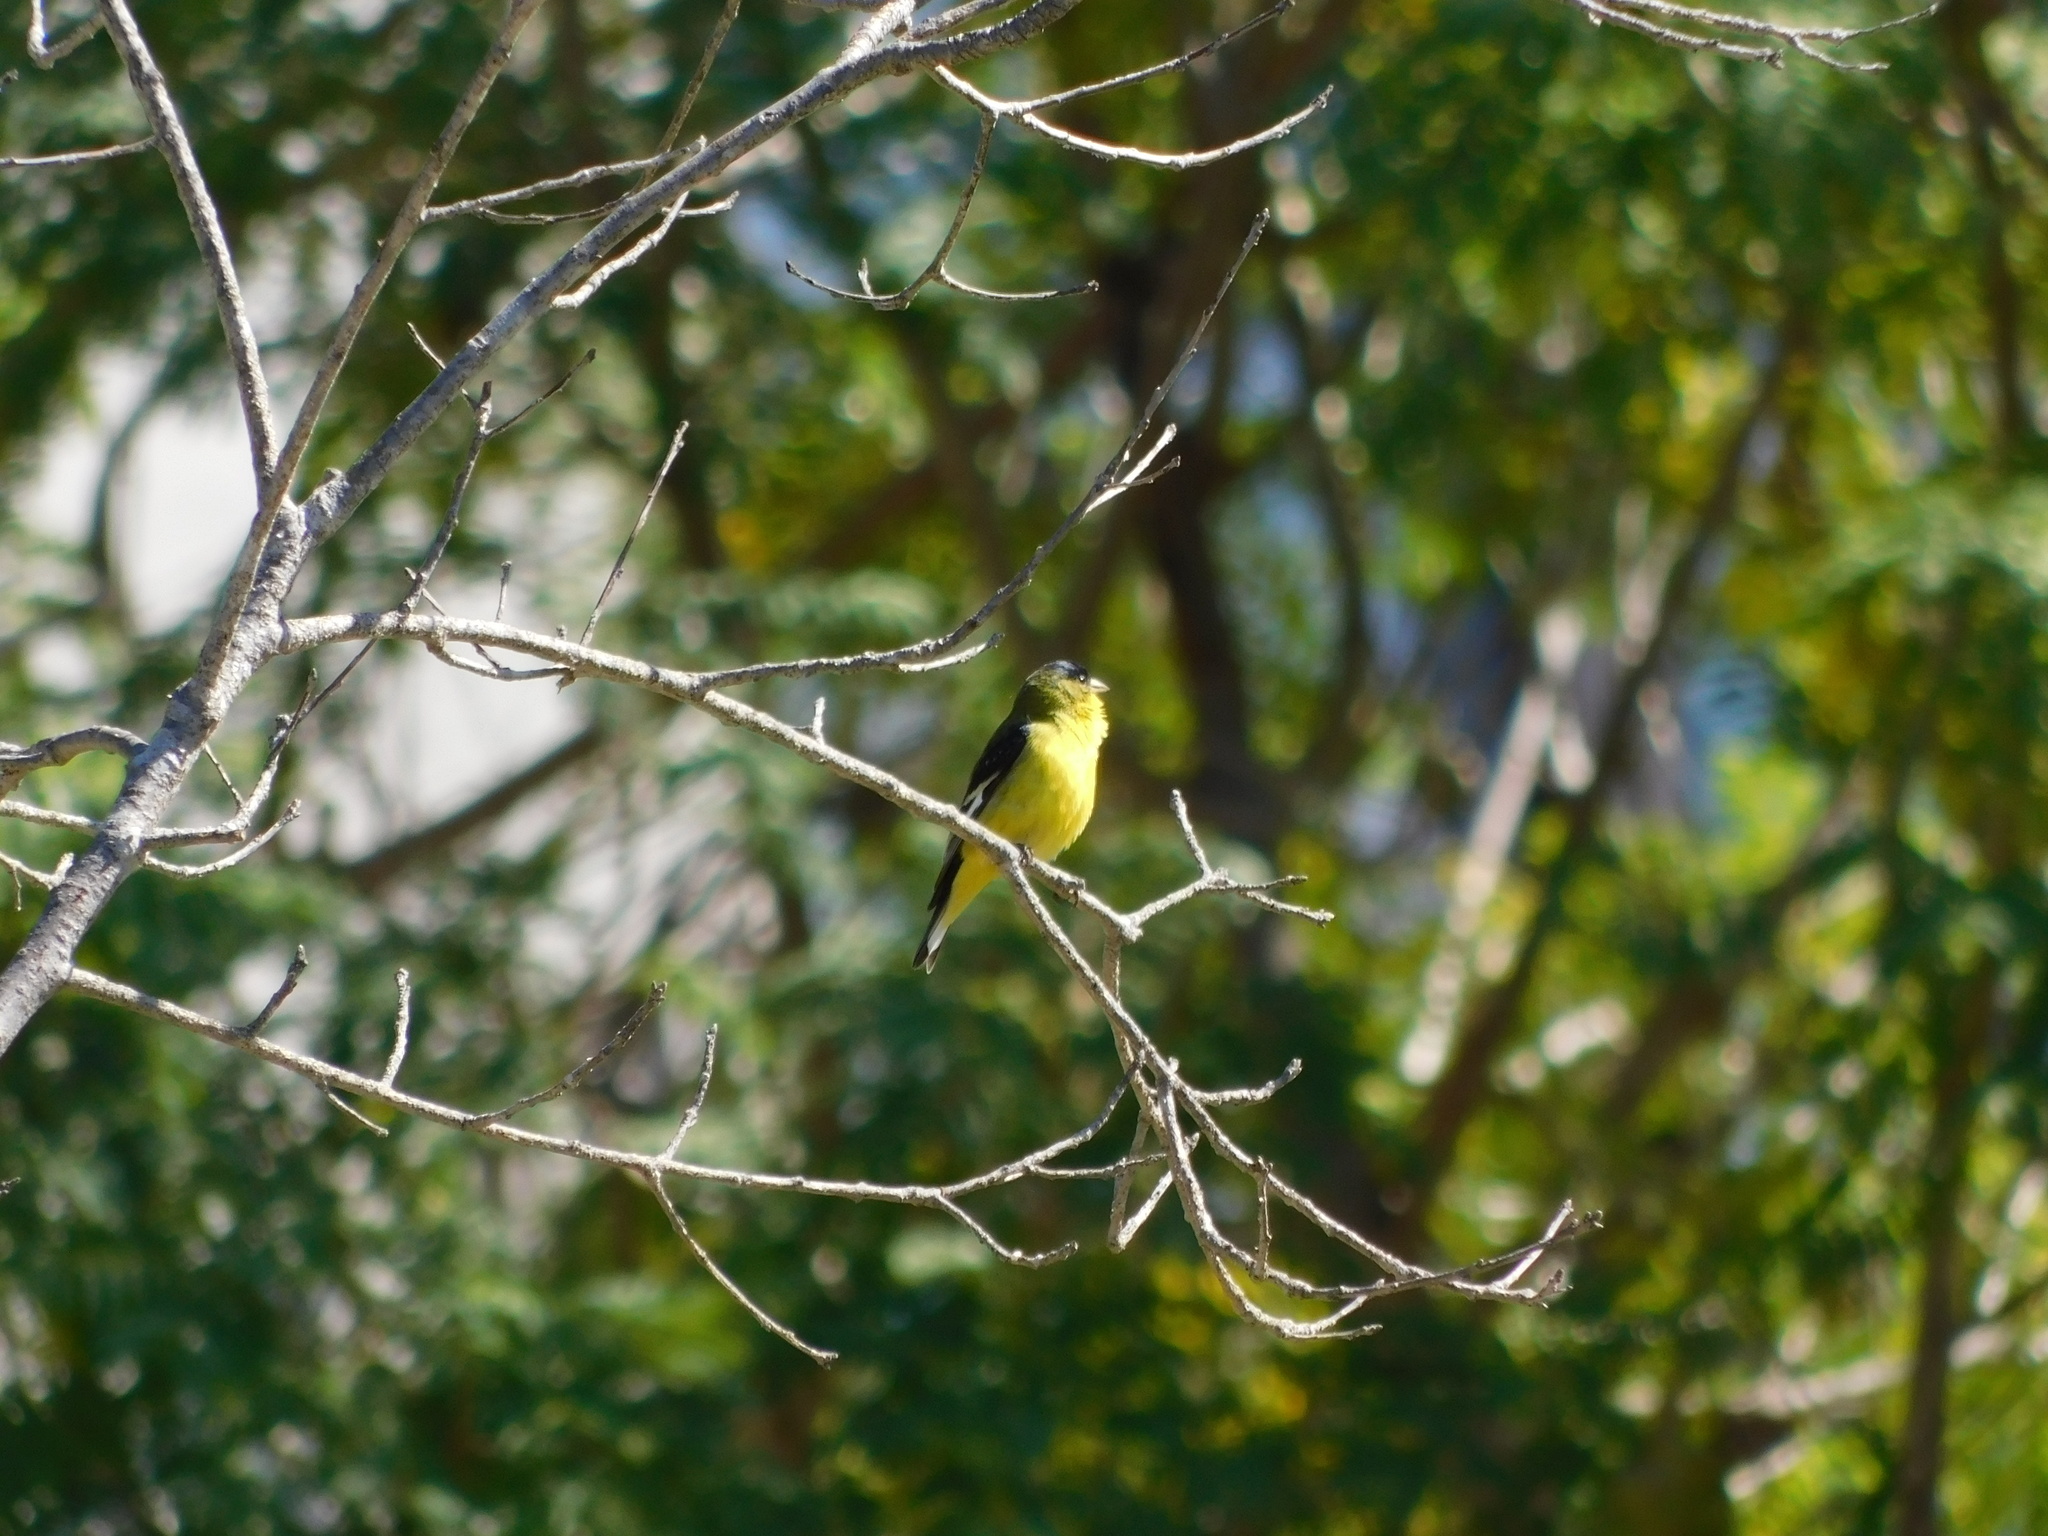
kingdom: Animalia
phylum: Chordata
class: Aves
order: Passeriformes
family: Fringillidae
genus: Spinus
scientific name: Spinus psaltria
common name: Lesser goldfinch
